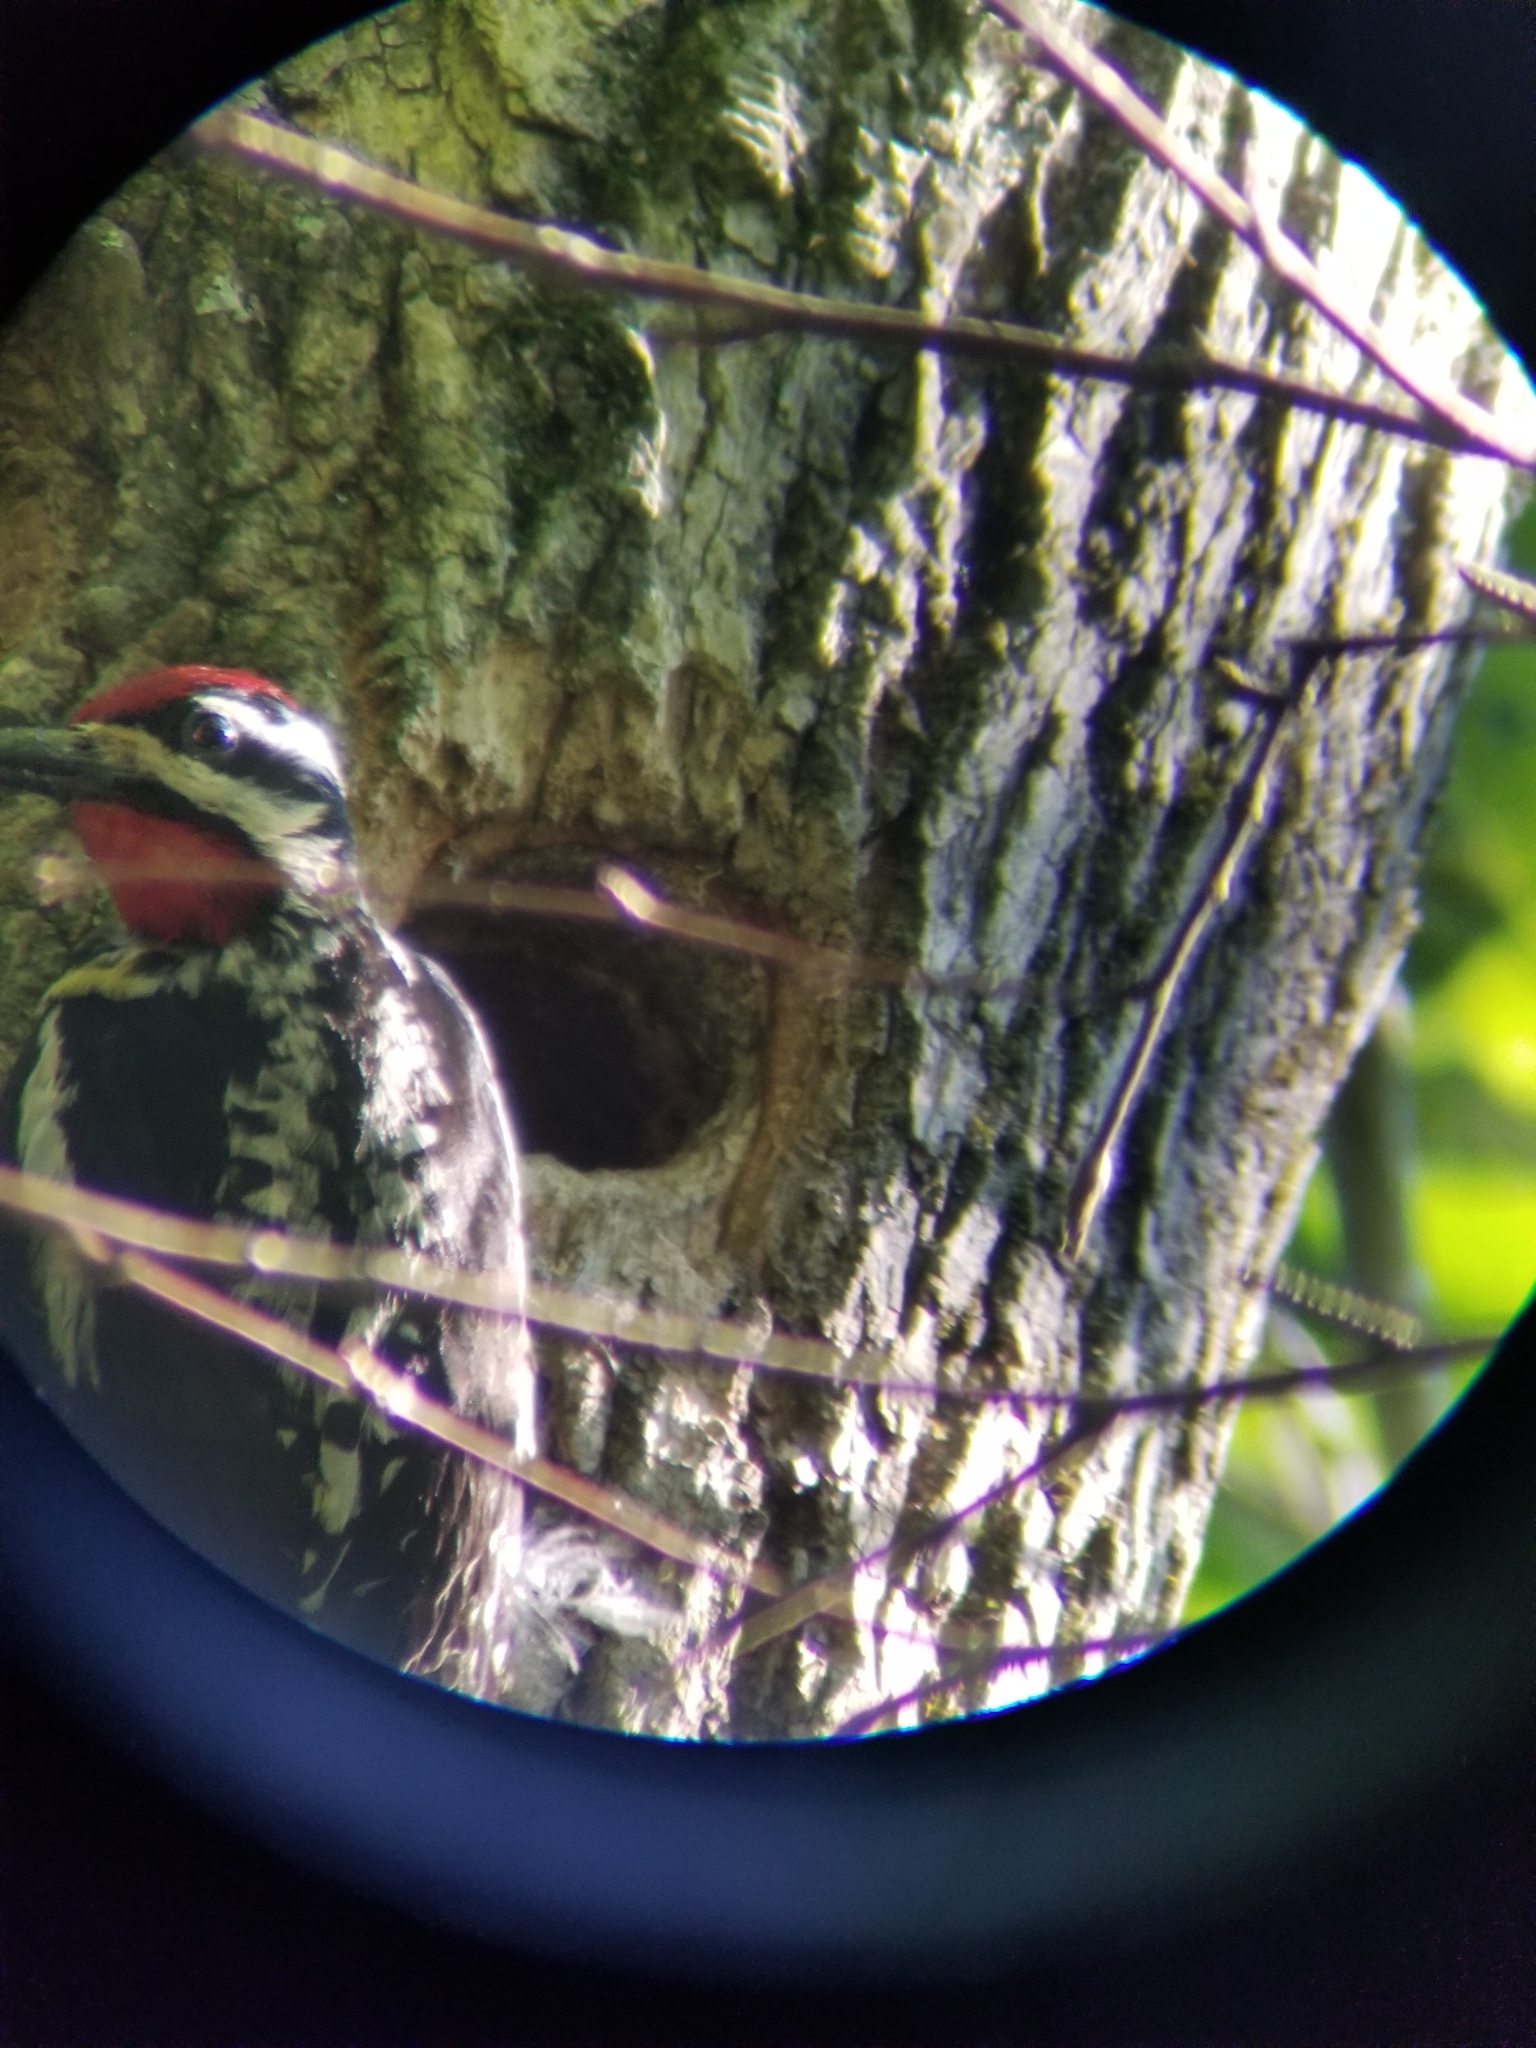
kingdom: Animalia
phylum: Chordata
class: Aves
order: Piciformes
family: Picidae
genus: Sphyrapicus
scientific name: Sphyrapicus varius
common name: Yellow-bellied sapsucker
